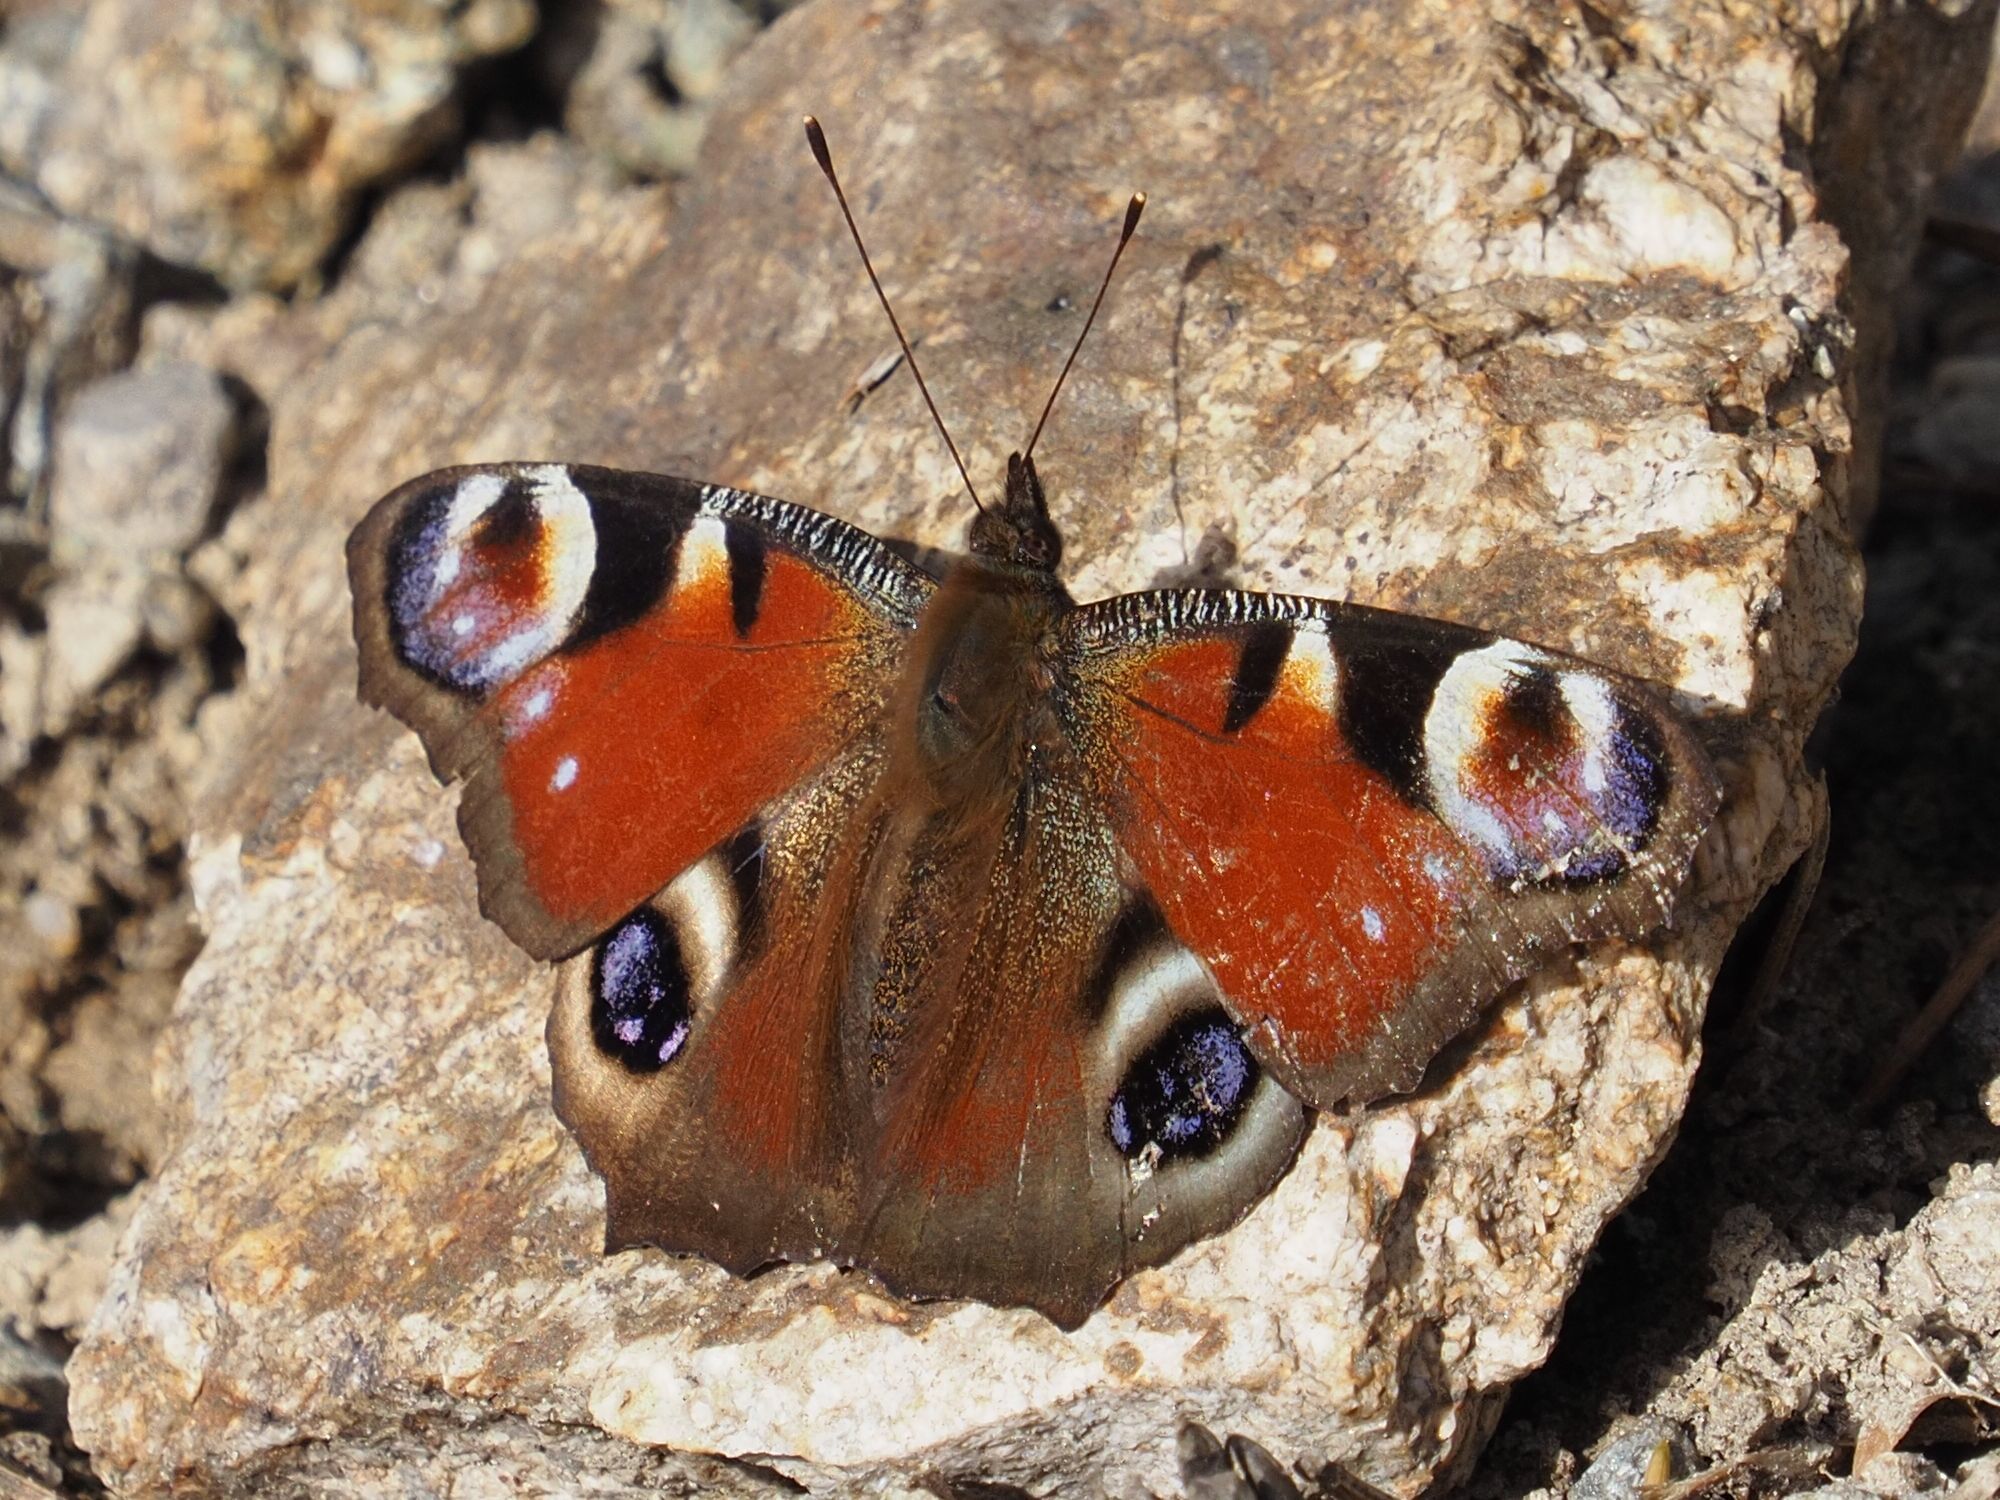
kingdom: Animalia
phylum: Arthropoda
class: Insecta
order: Lepidoptera
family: Nymphalidae
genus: Aglais
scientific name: Aglais io
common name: Peacock
